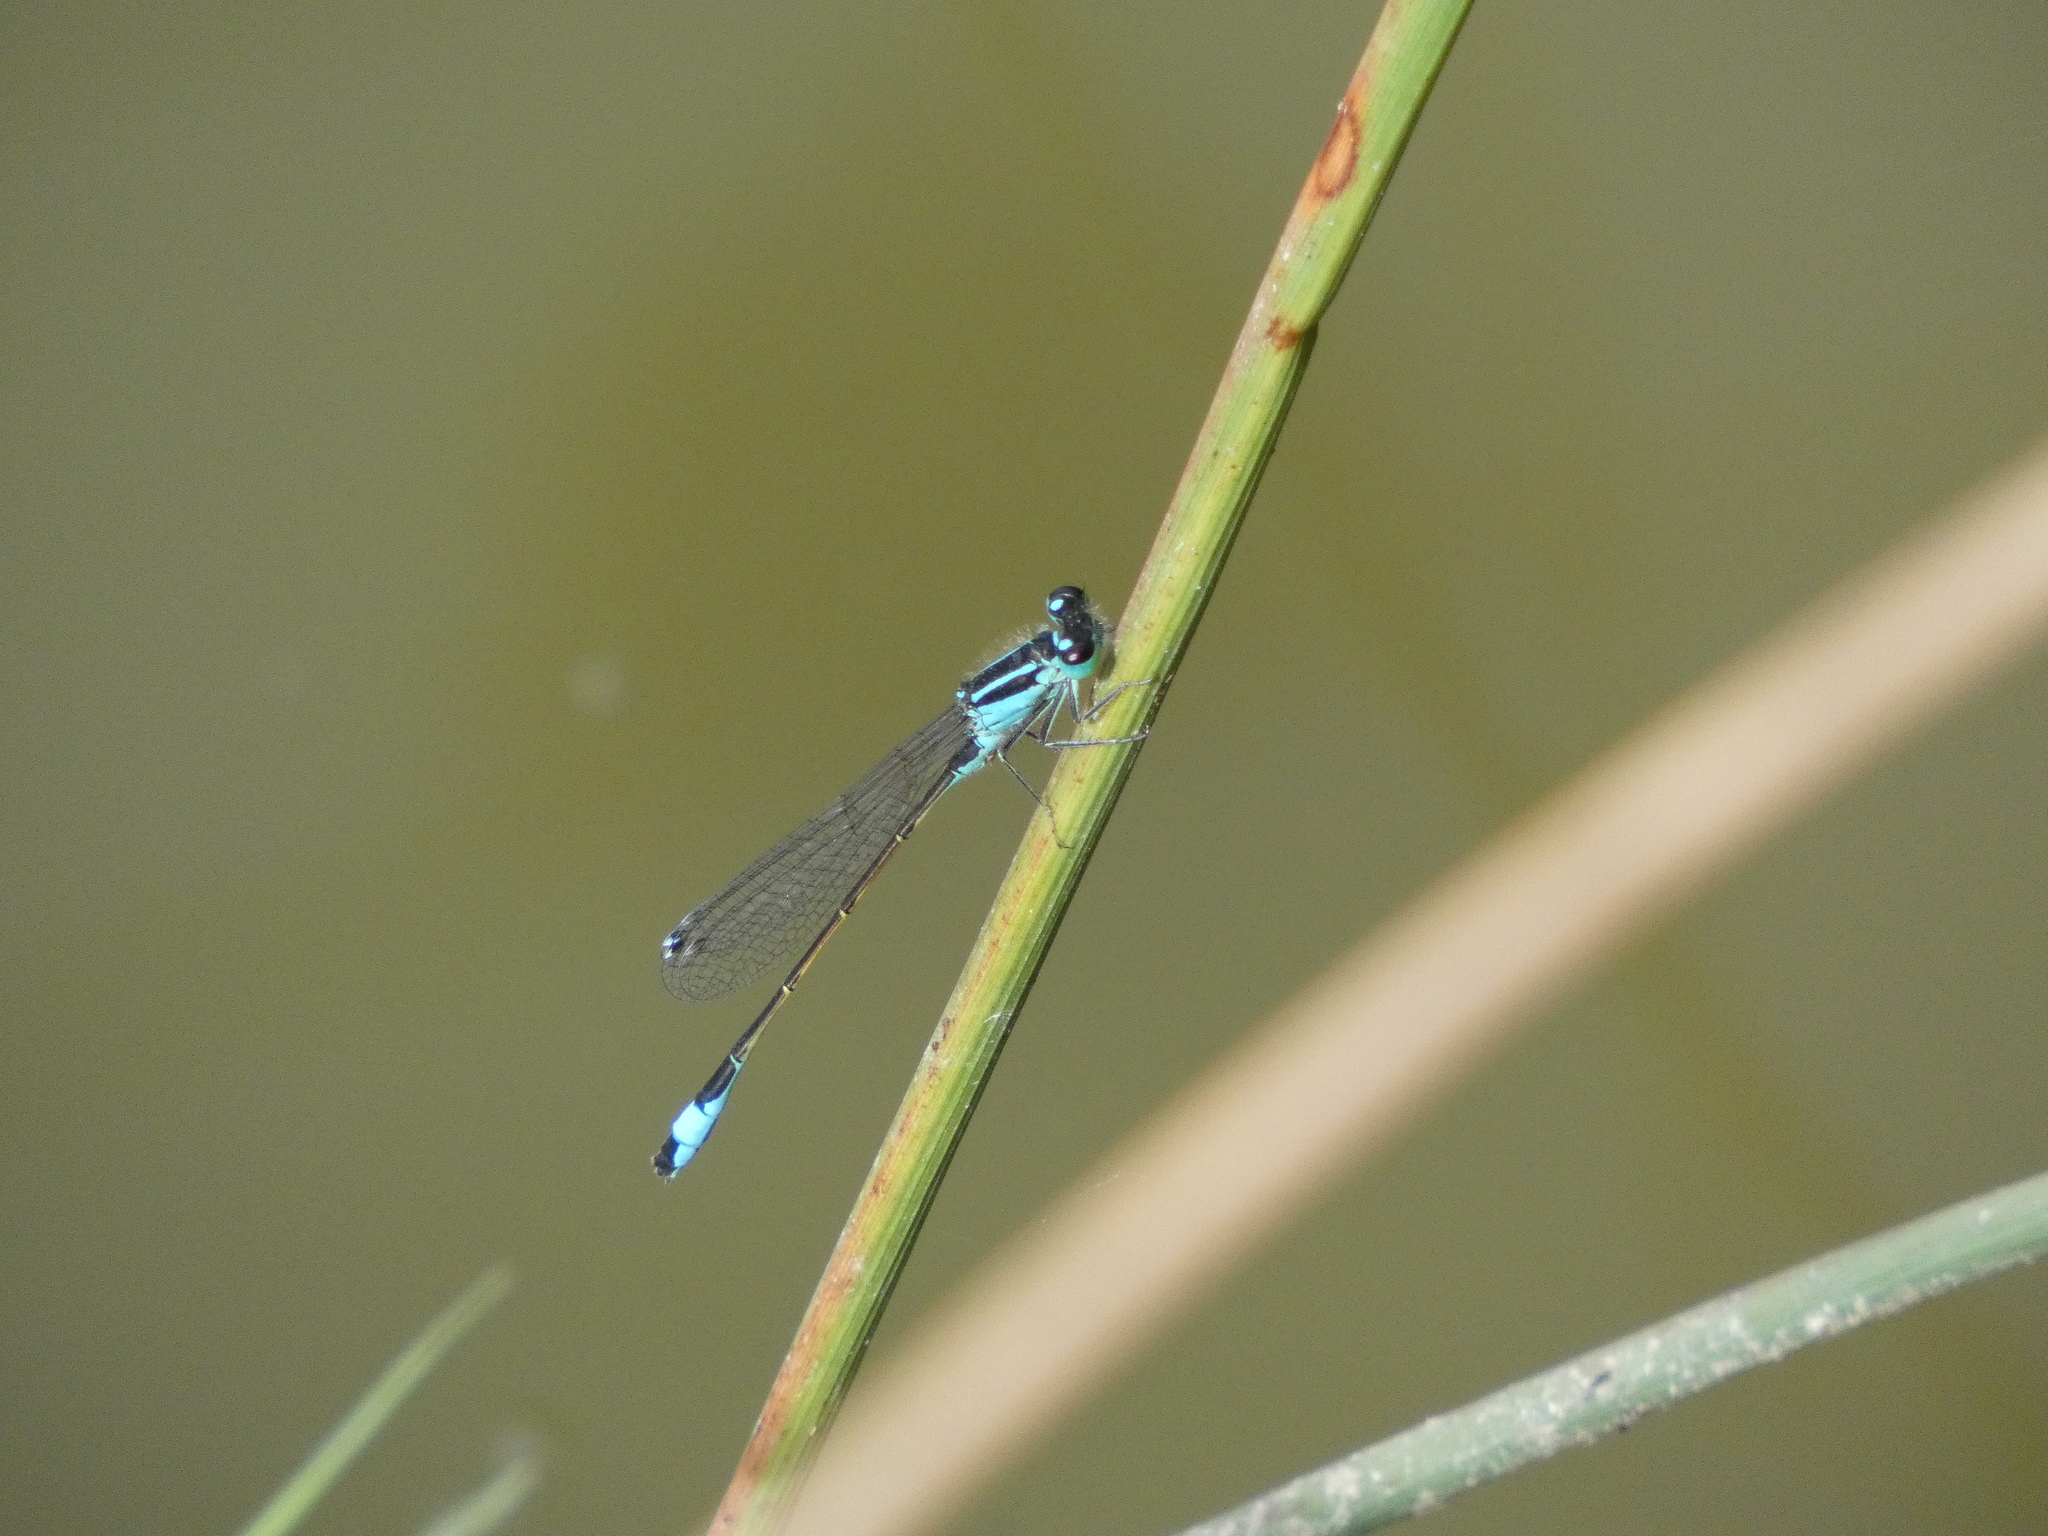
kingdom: Animalia
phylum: Arthropoda
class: Insecta
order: Odonata
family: Coenagrionidae
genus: Ischnura
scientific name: Ischnura elegans
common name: Blue-tailed damselfly
